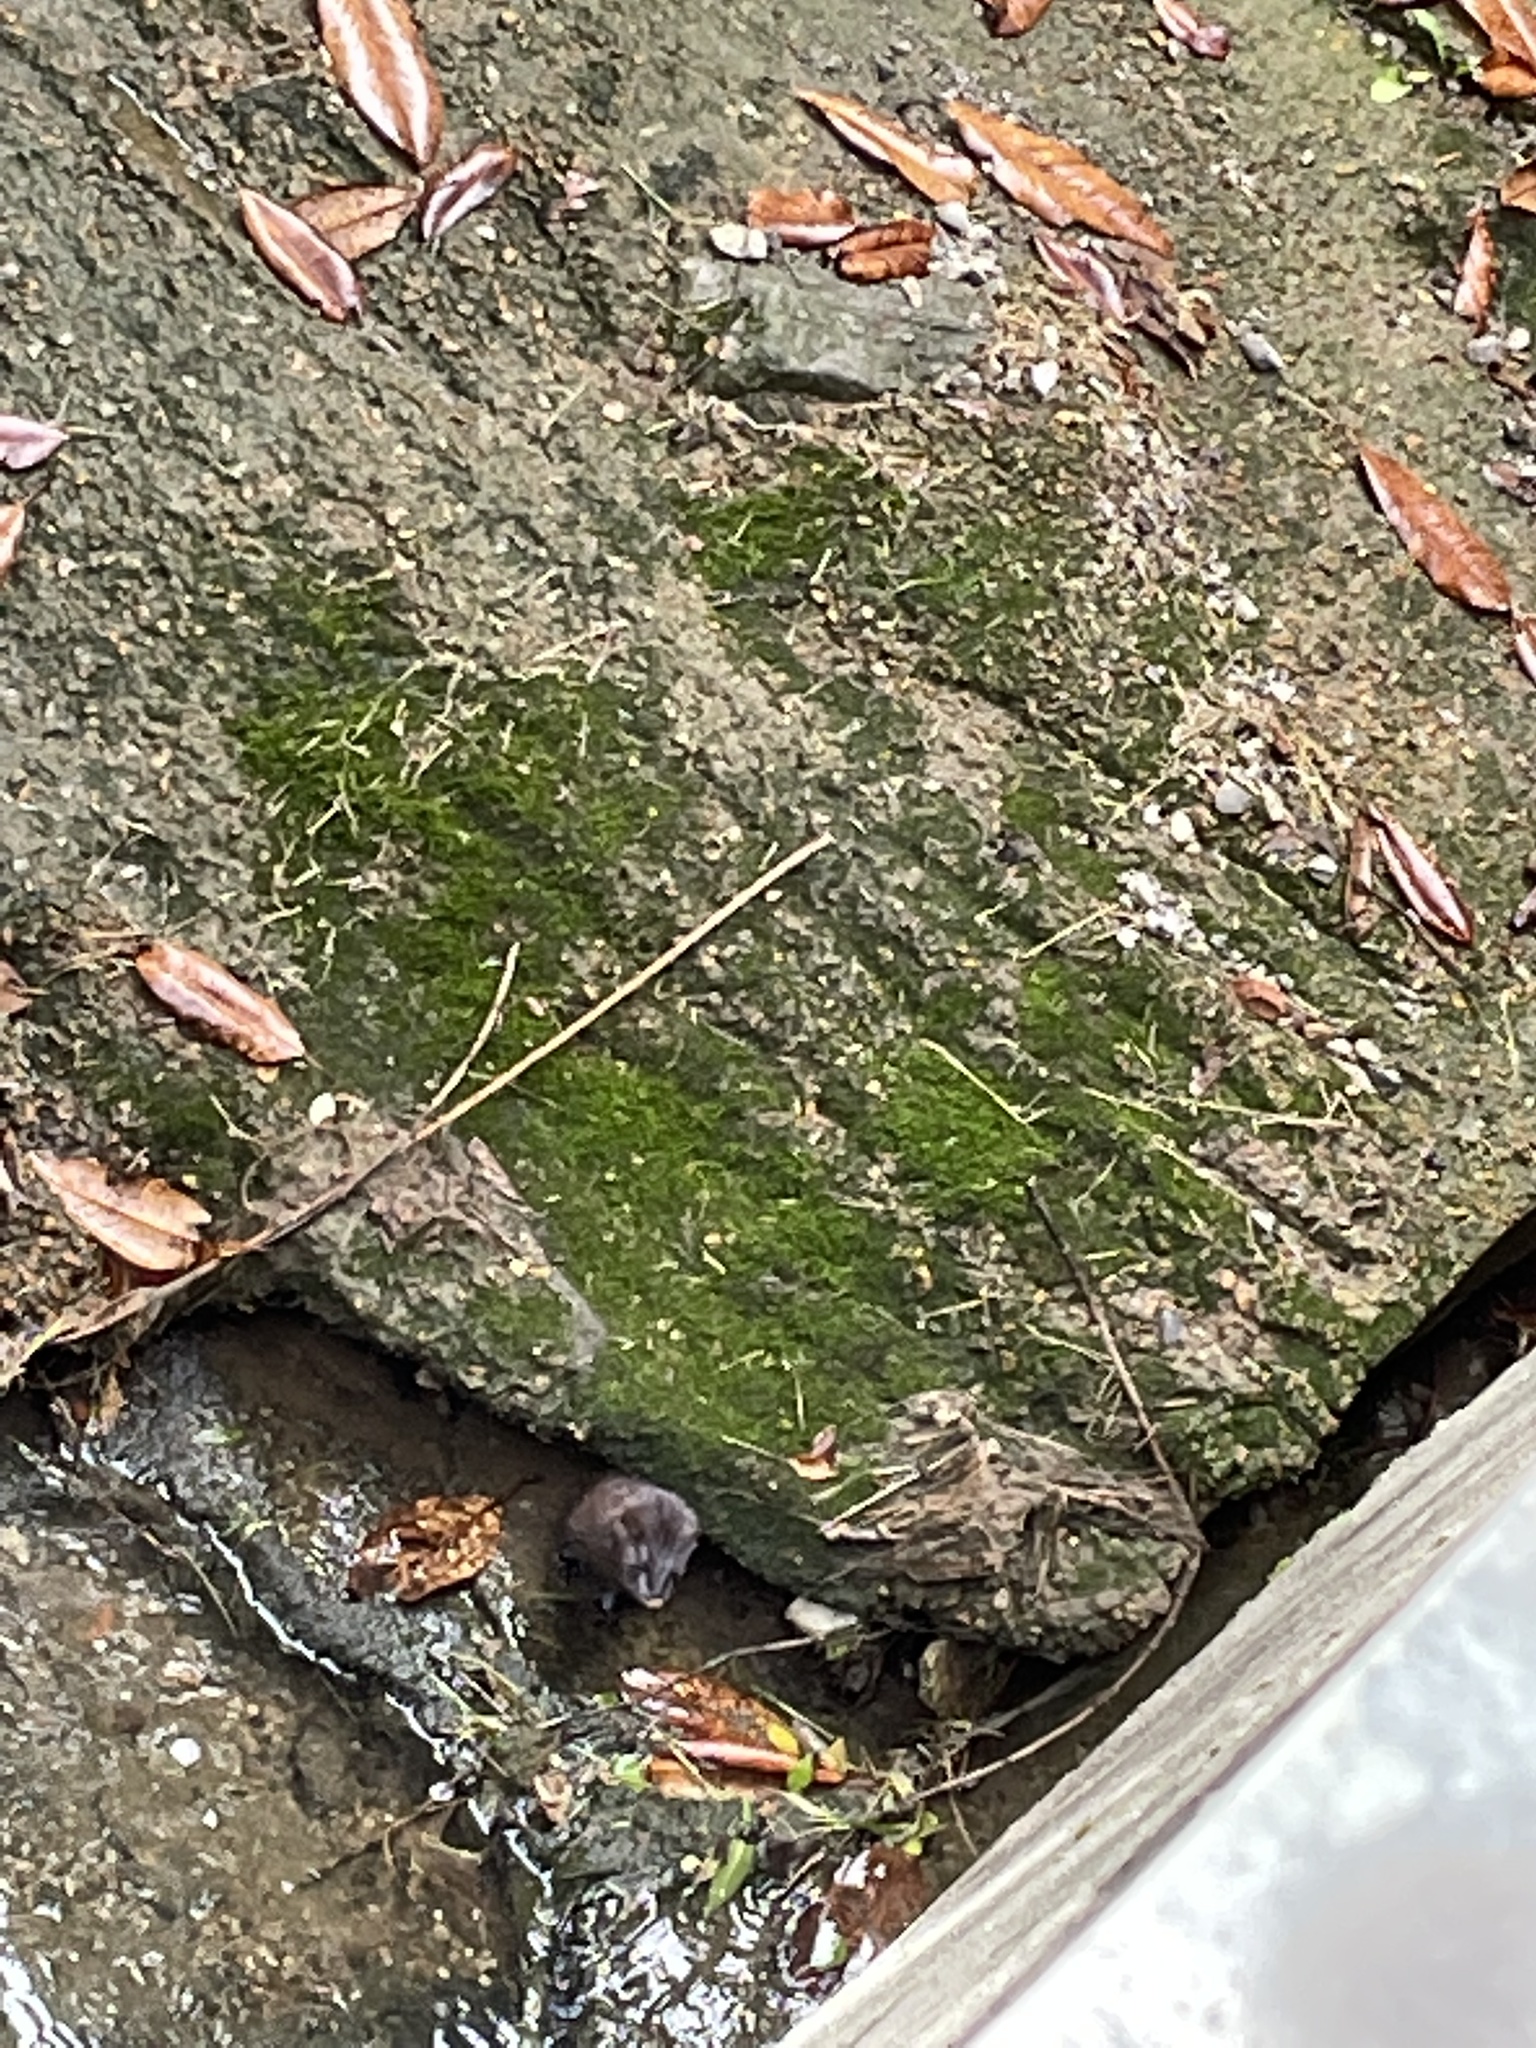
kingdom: Animalia
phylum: Chordata
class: Mammalia
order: Carnivora
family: Mustelidae
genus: Mustela
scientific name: Mustela
